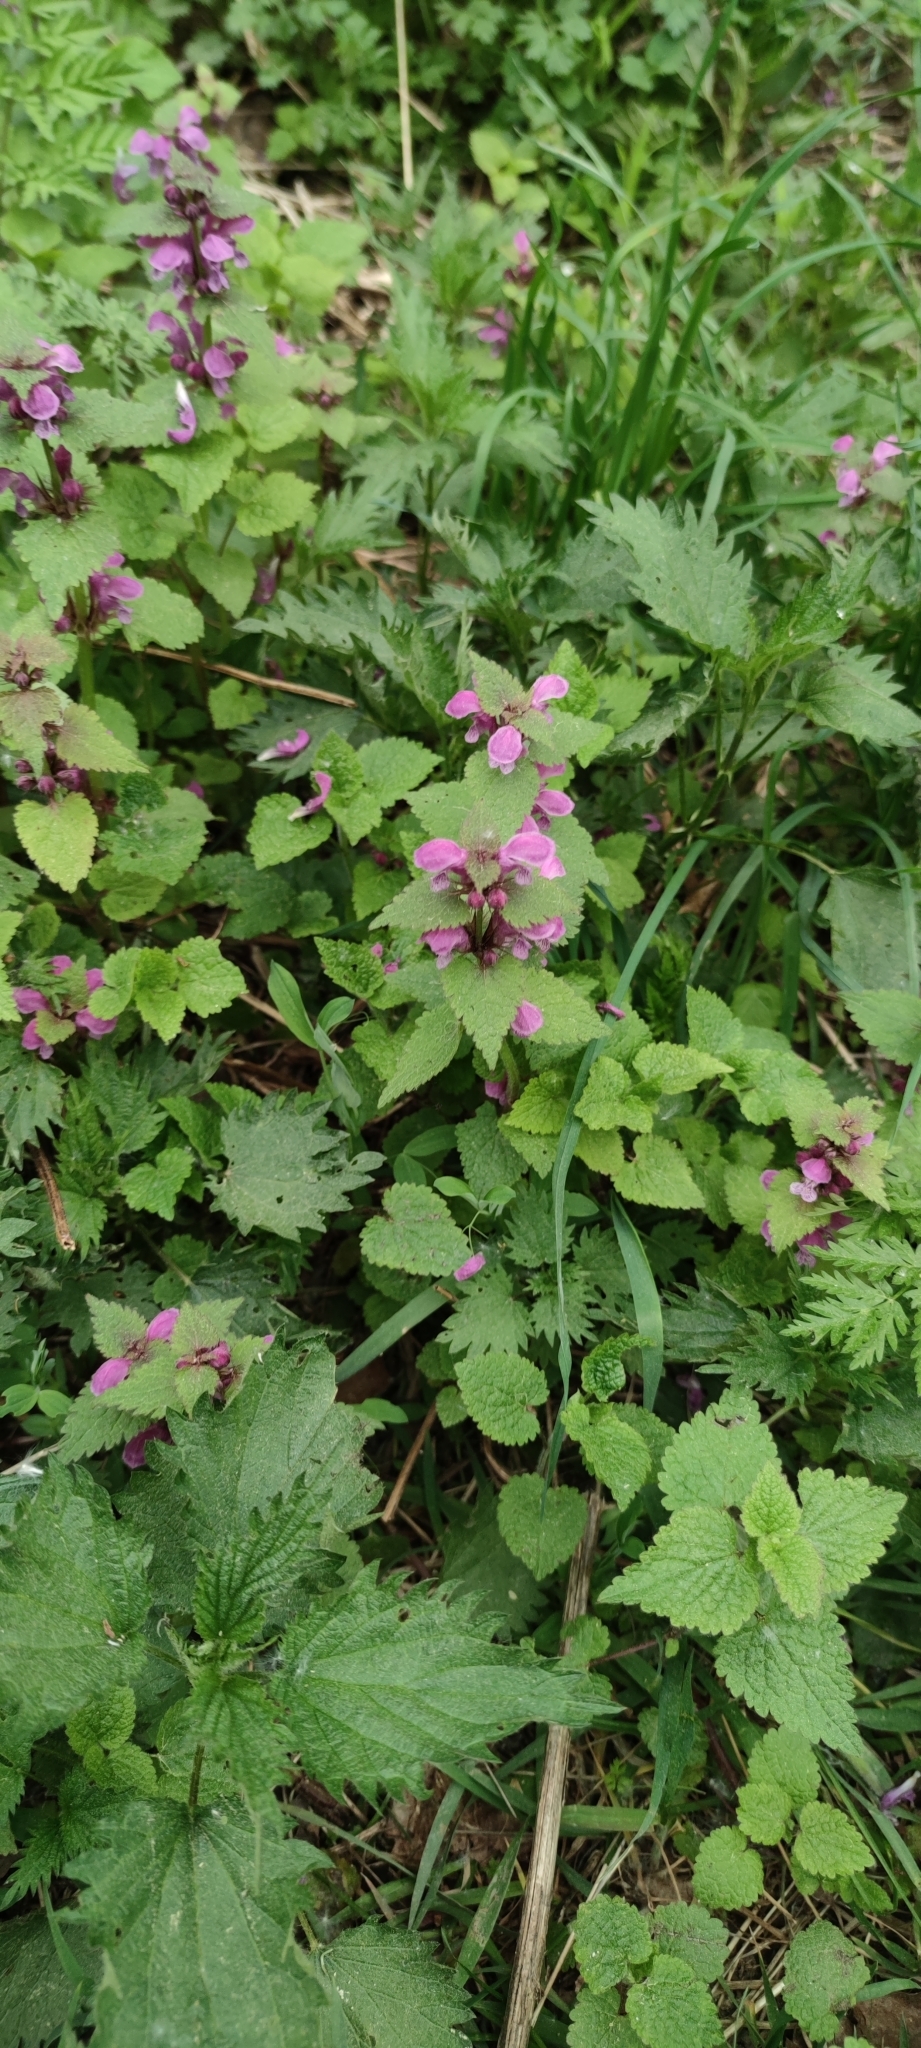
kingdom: Plantae
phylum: Tracheophyta
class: Magnoliopsida
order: Lamiales
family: Lamiaceae
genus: Lamium
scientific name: Lamium maculatum
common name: Spotted dead-nettle
